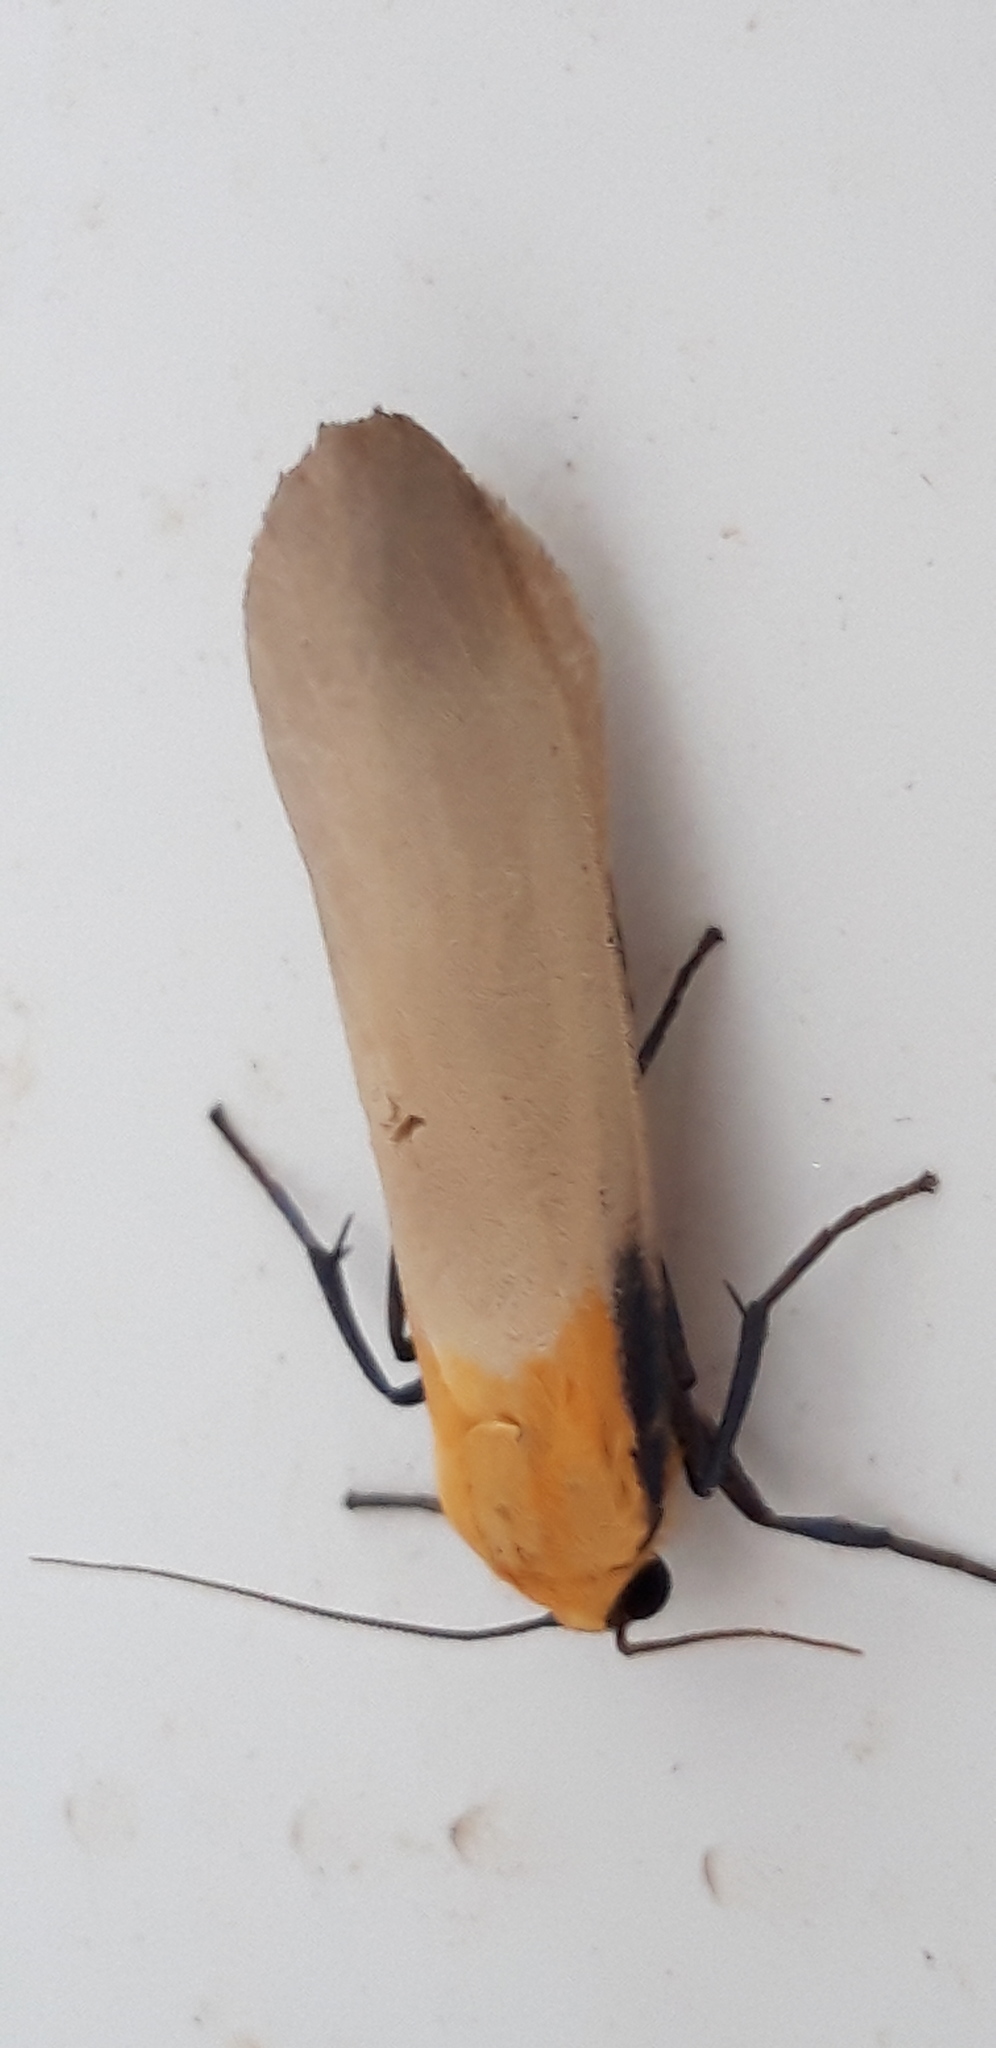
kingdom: Animalia
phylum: Arthropoda
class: Insecta
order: Lepidoptera
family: Erebidae
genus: Lithosia
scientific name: Lithosia quadra
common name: Four-spotted footman
